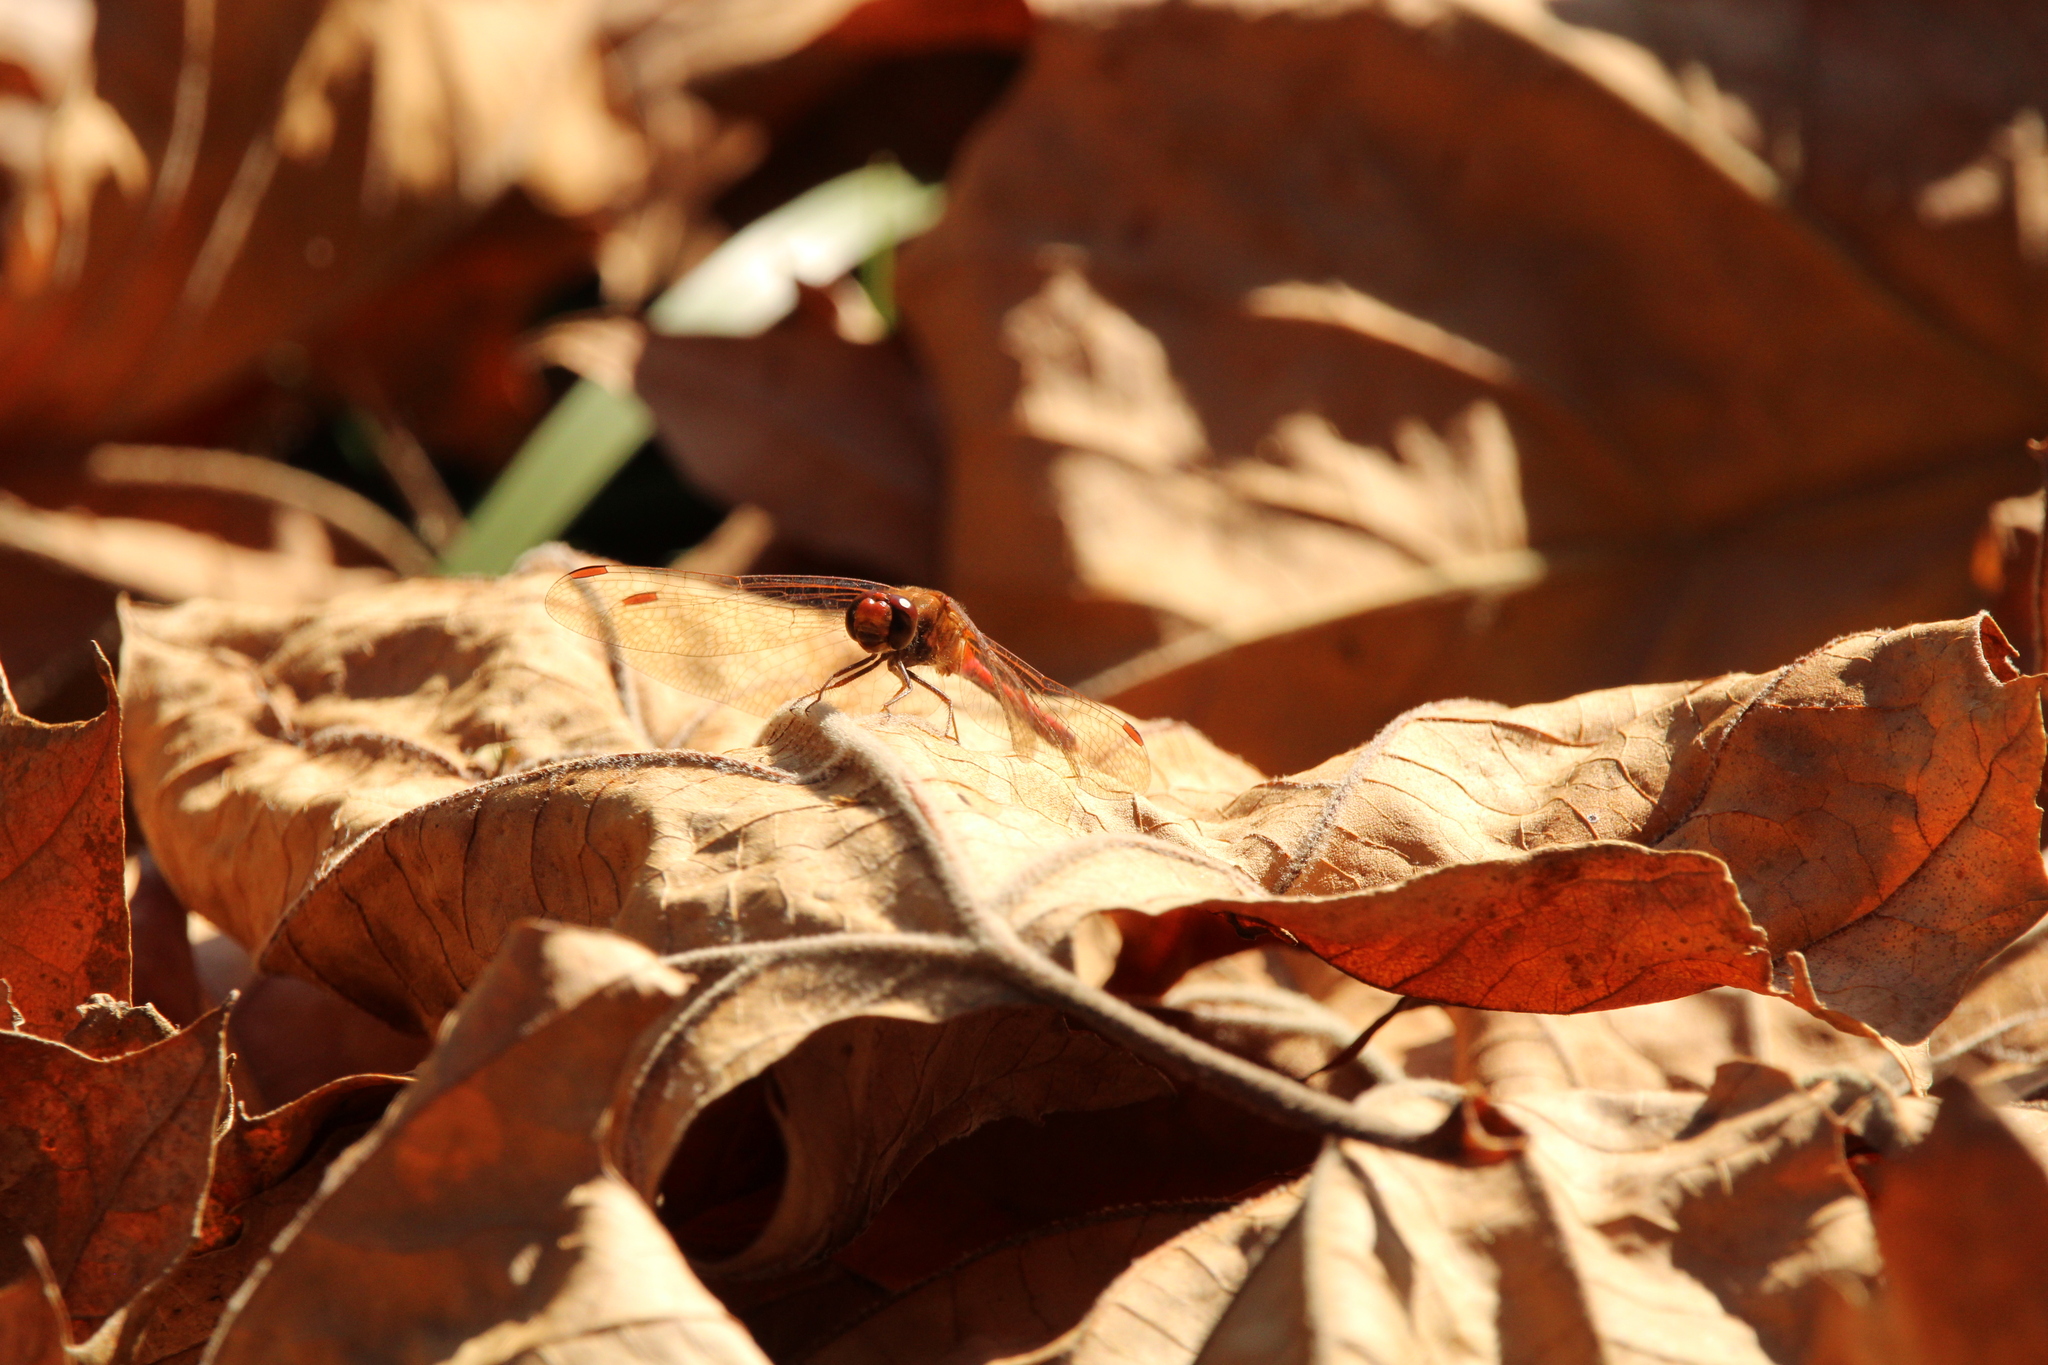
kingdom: Animalia
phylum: Arthropoda
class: Insecta
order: Odonata
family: Libellulidae
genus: Sympetrum
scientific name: Sympetrum vicinum
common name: Autumn meadowhawk
